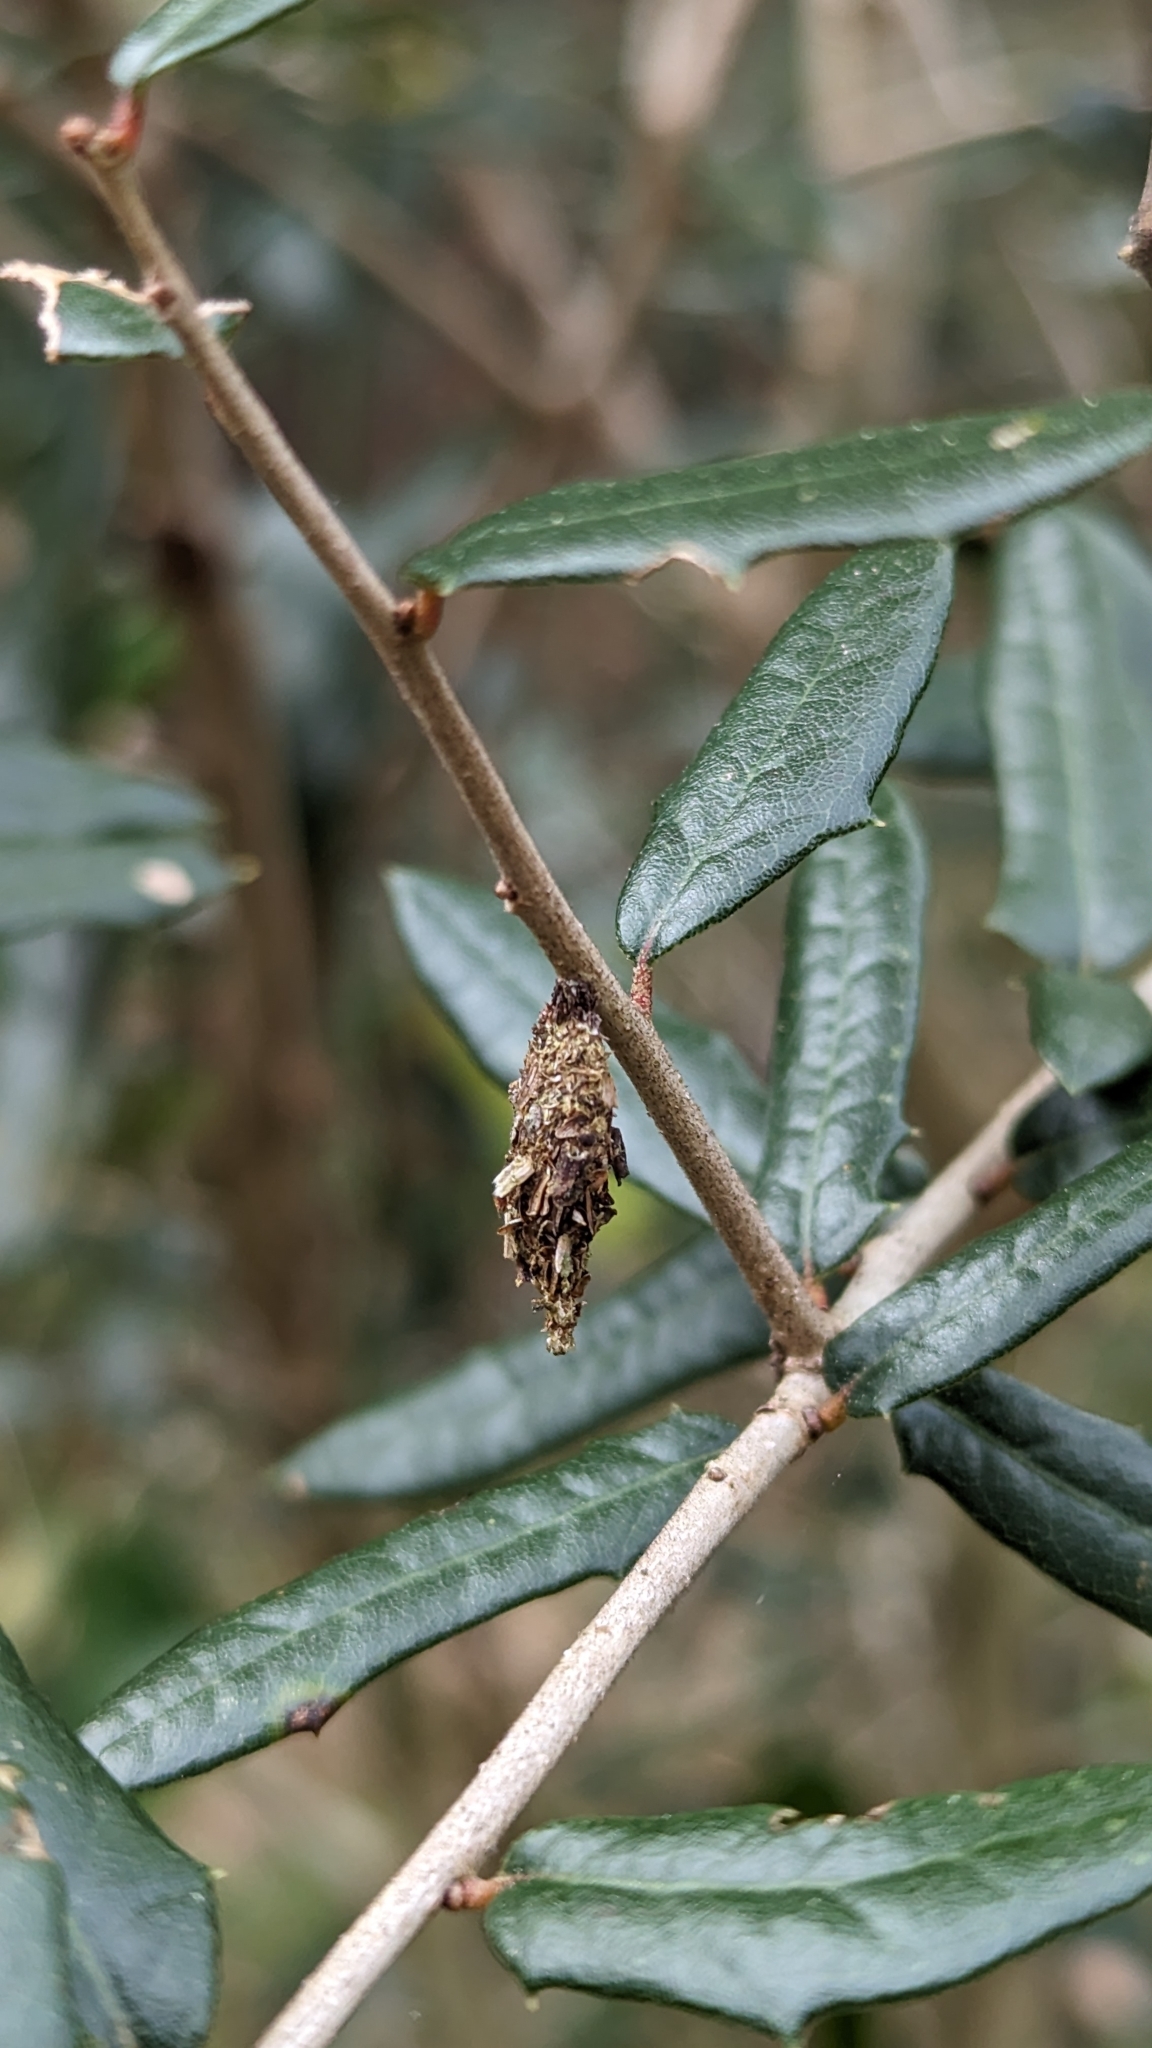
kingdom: Plantae
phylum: Tracheophyta
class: Magnoliopsida
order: Fagales
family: Fagaceae
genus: Quercus
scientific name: Quercus virginiana
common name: Southern live oak
